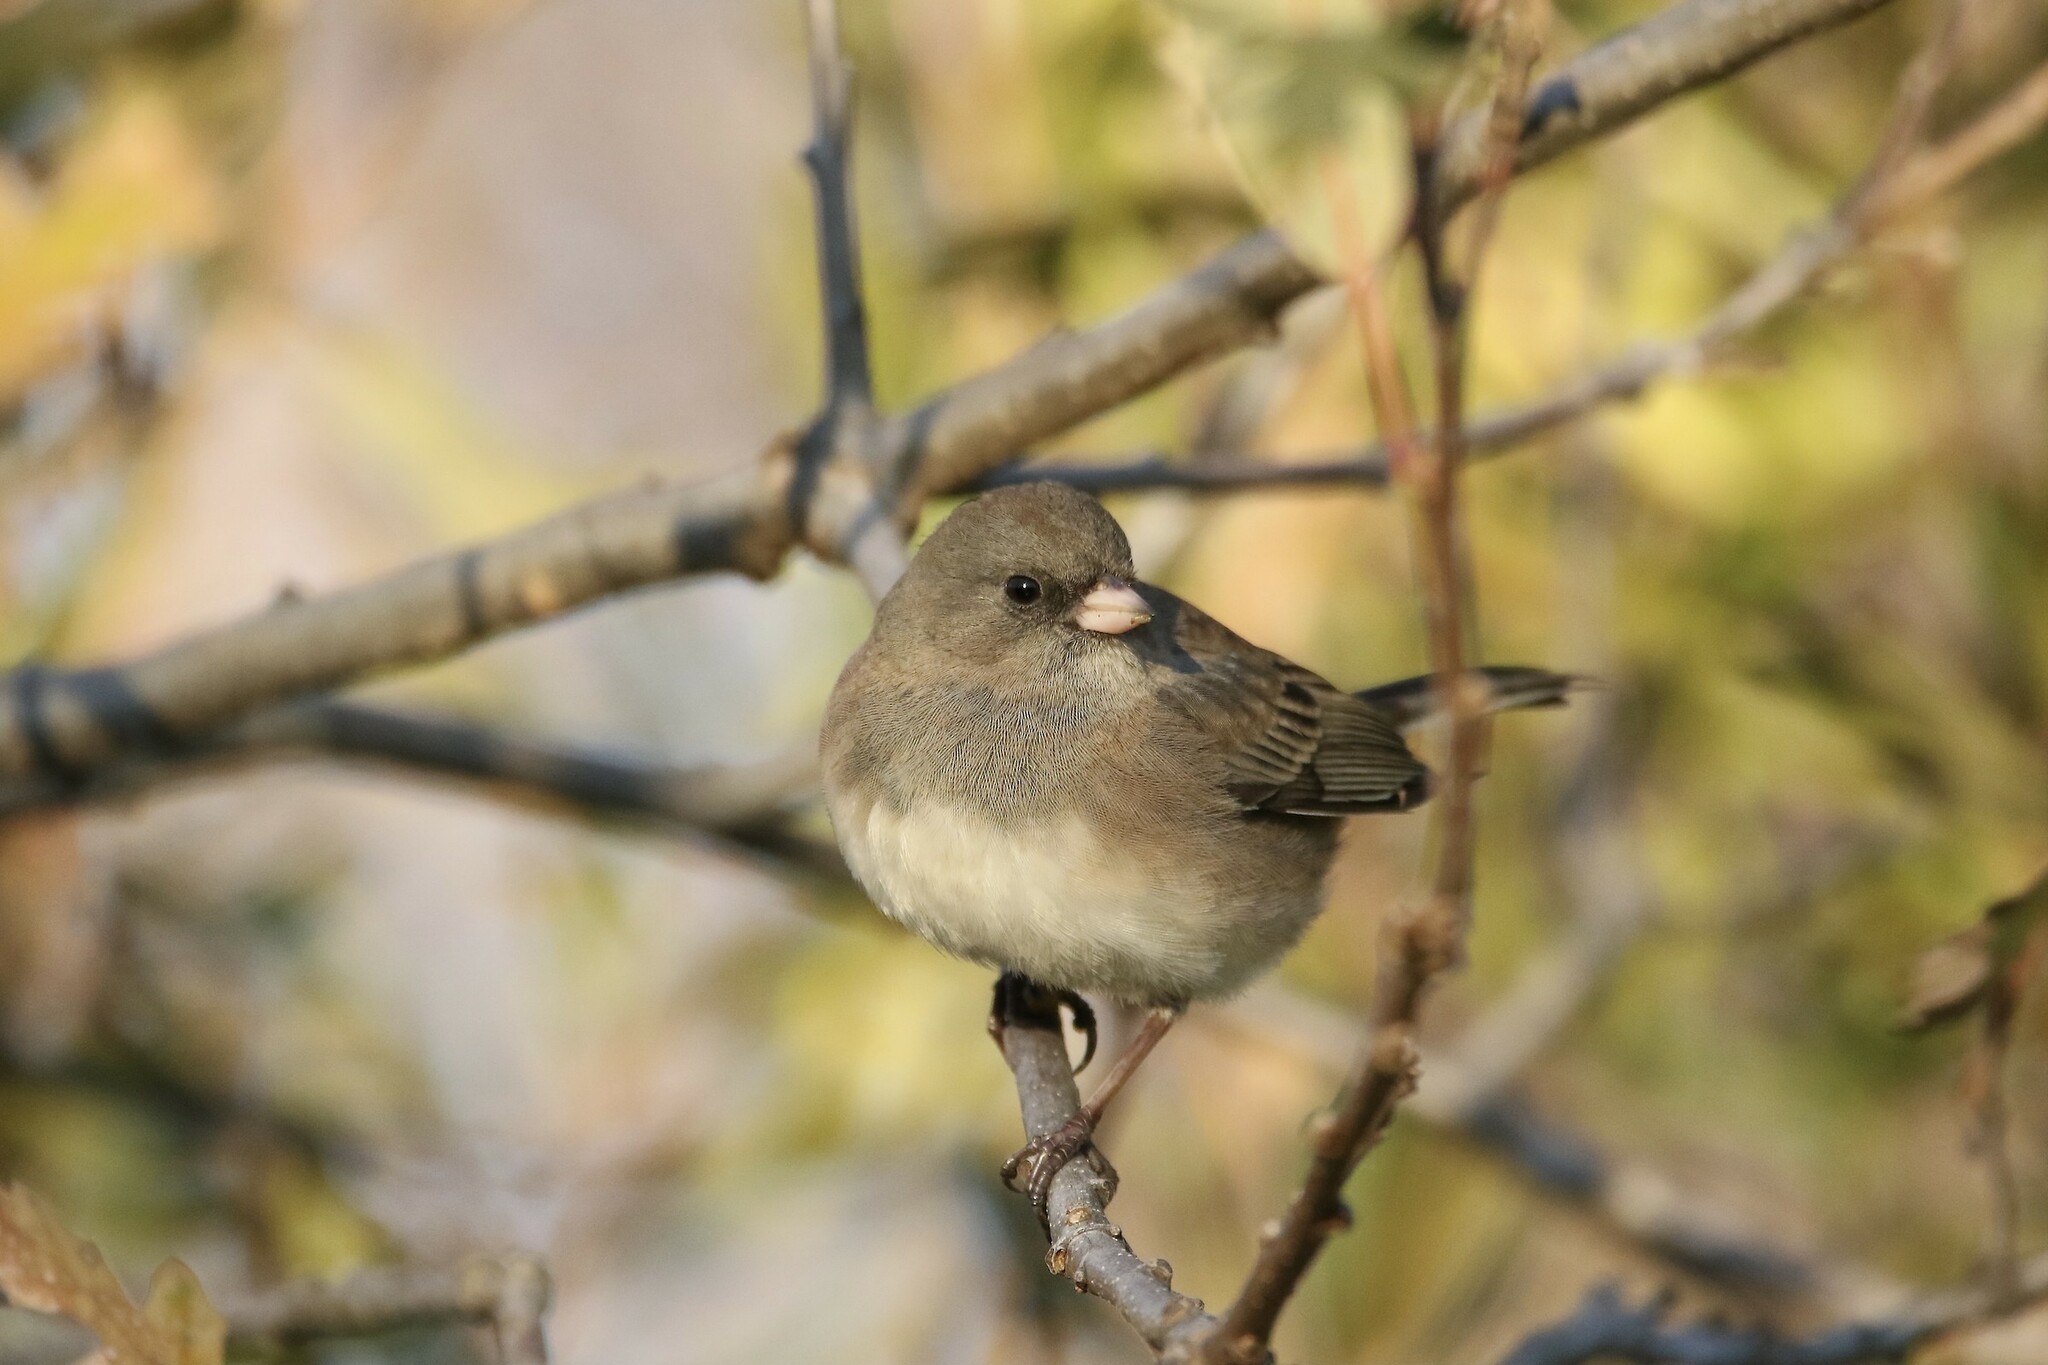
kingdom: Animalia
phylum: Chordata
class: Aves
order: Passeriformes
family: Passerellidae
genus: Junco
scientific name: Junco hyemalis
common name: Dark-eyed junco
